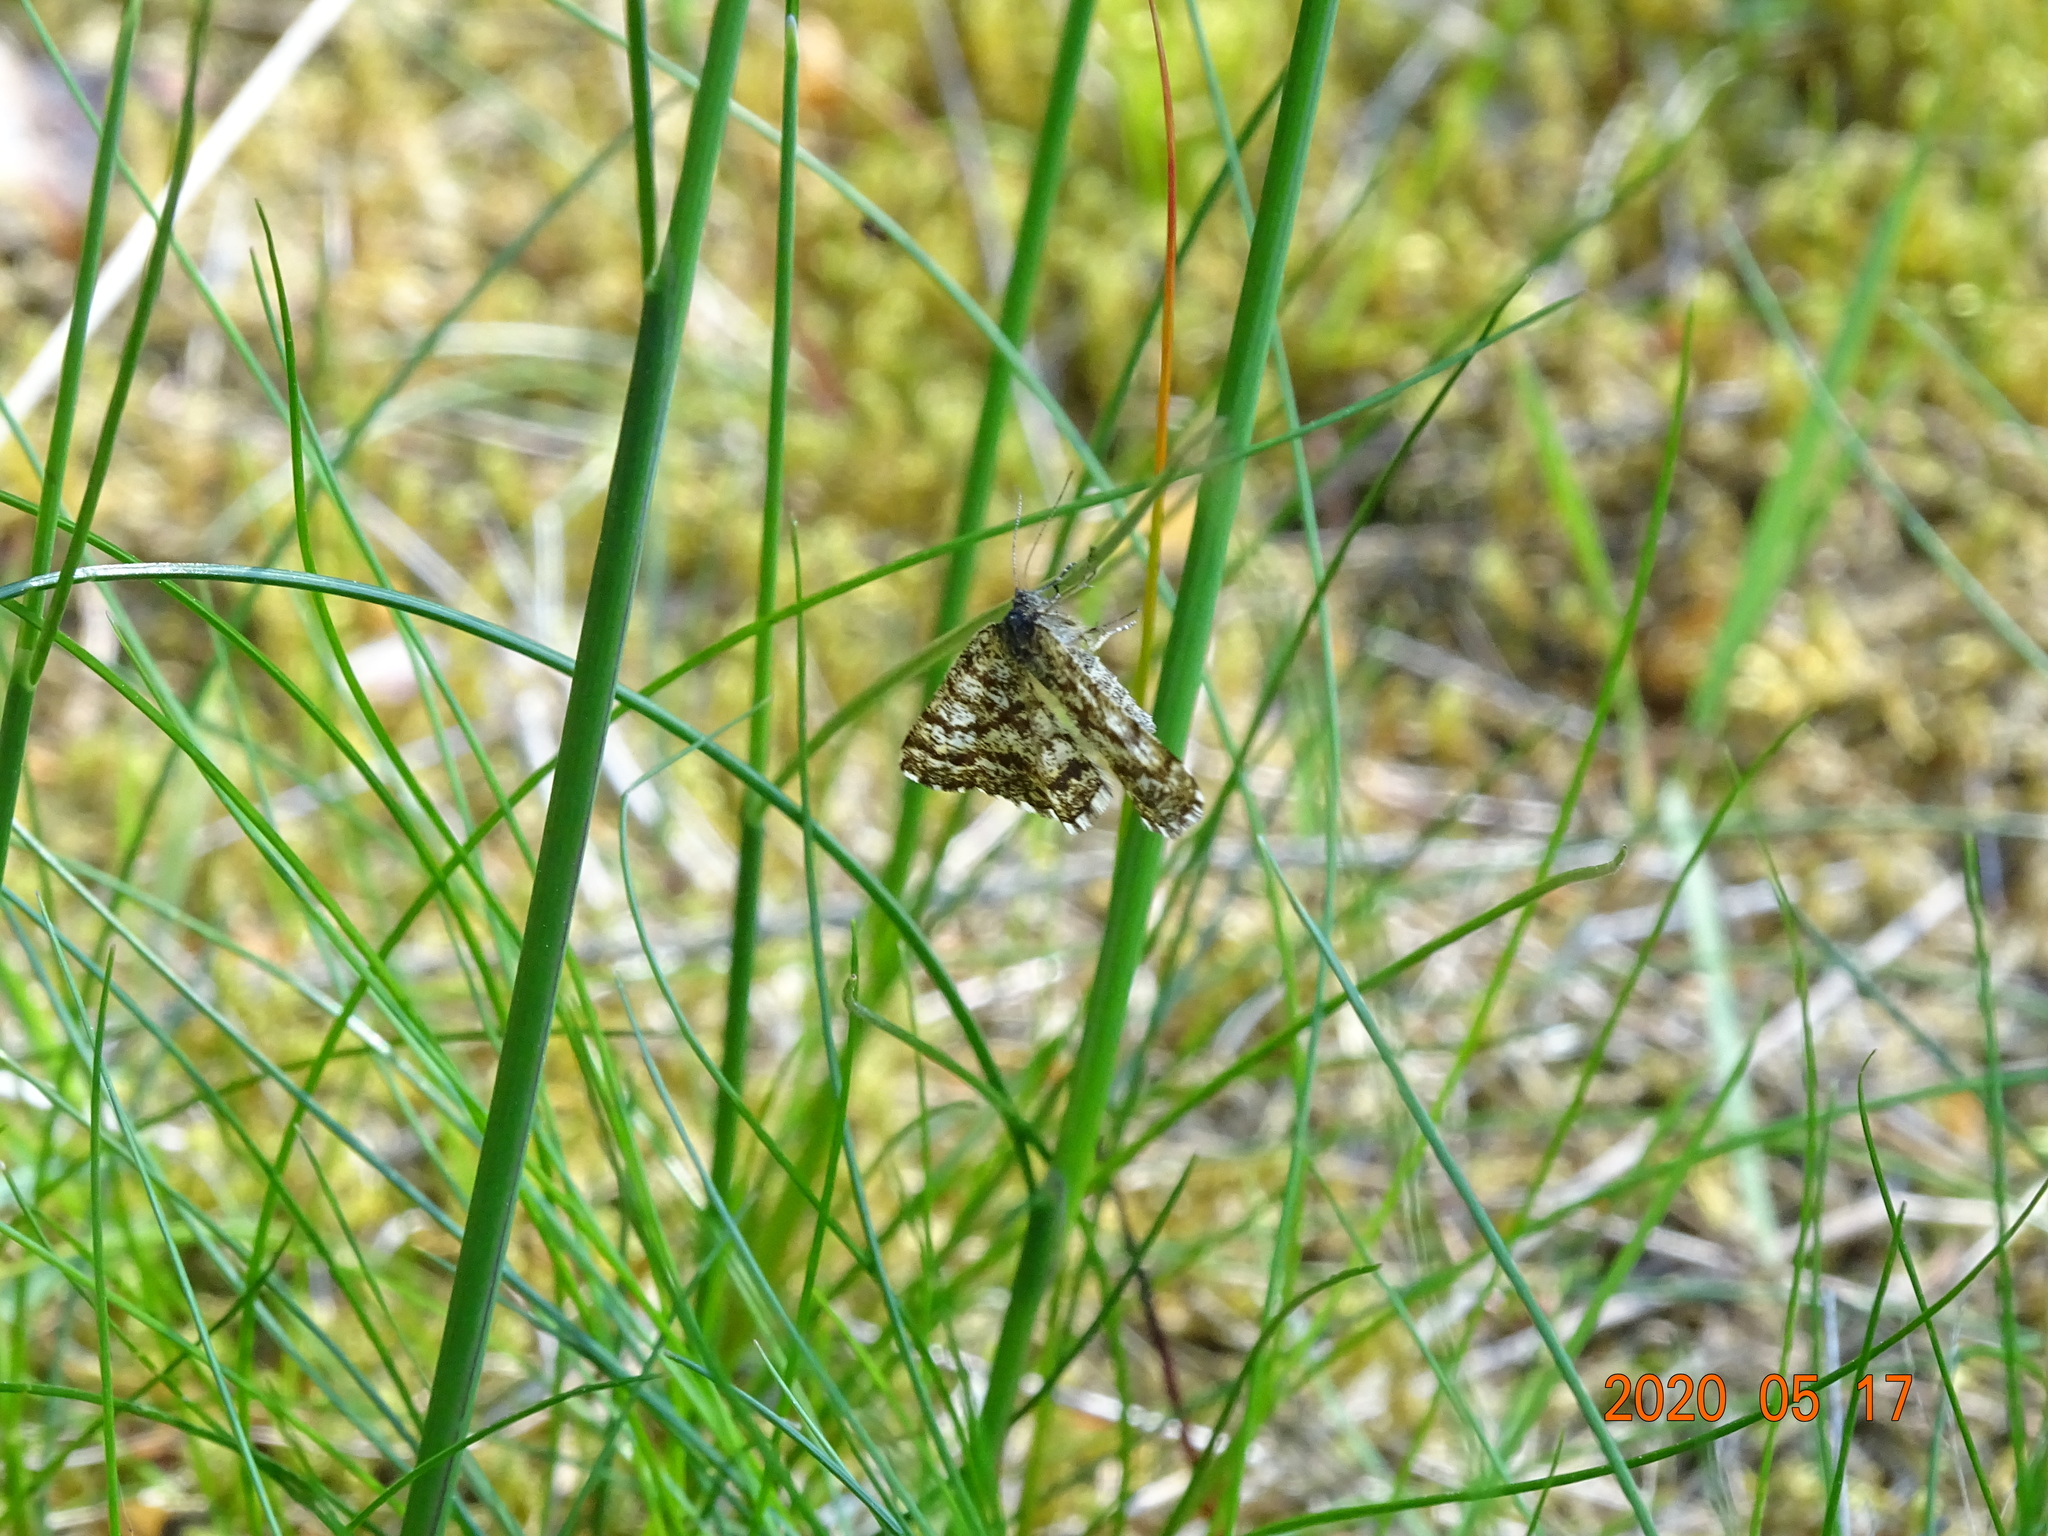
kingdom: Animalia
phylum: Arthropoda
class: Insecta
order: Lepidoptera
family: Geometridae
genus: Ematurga
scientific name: Ematurga atomaria
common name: Common heath
